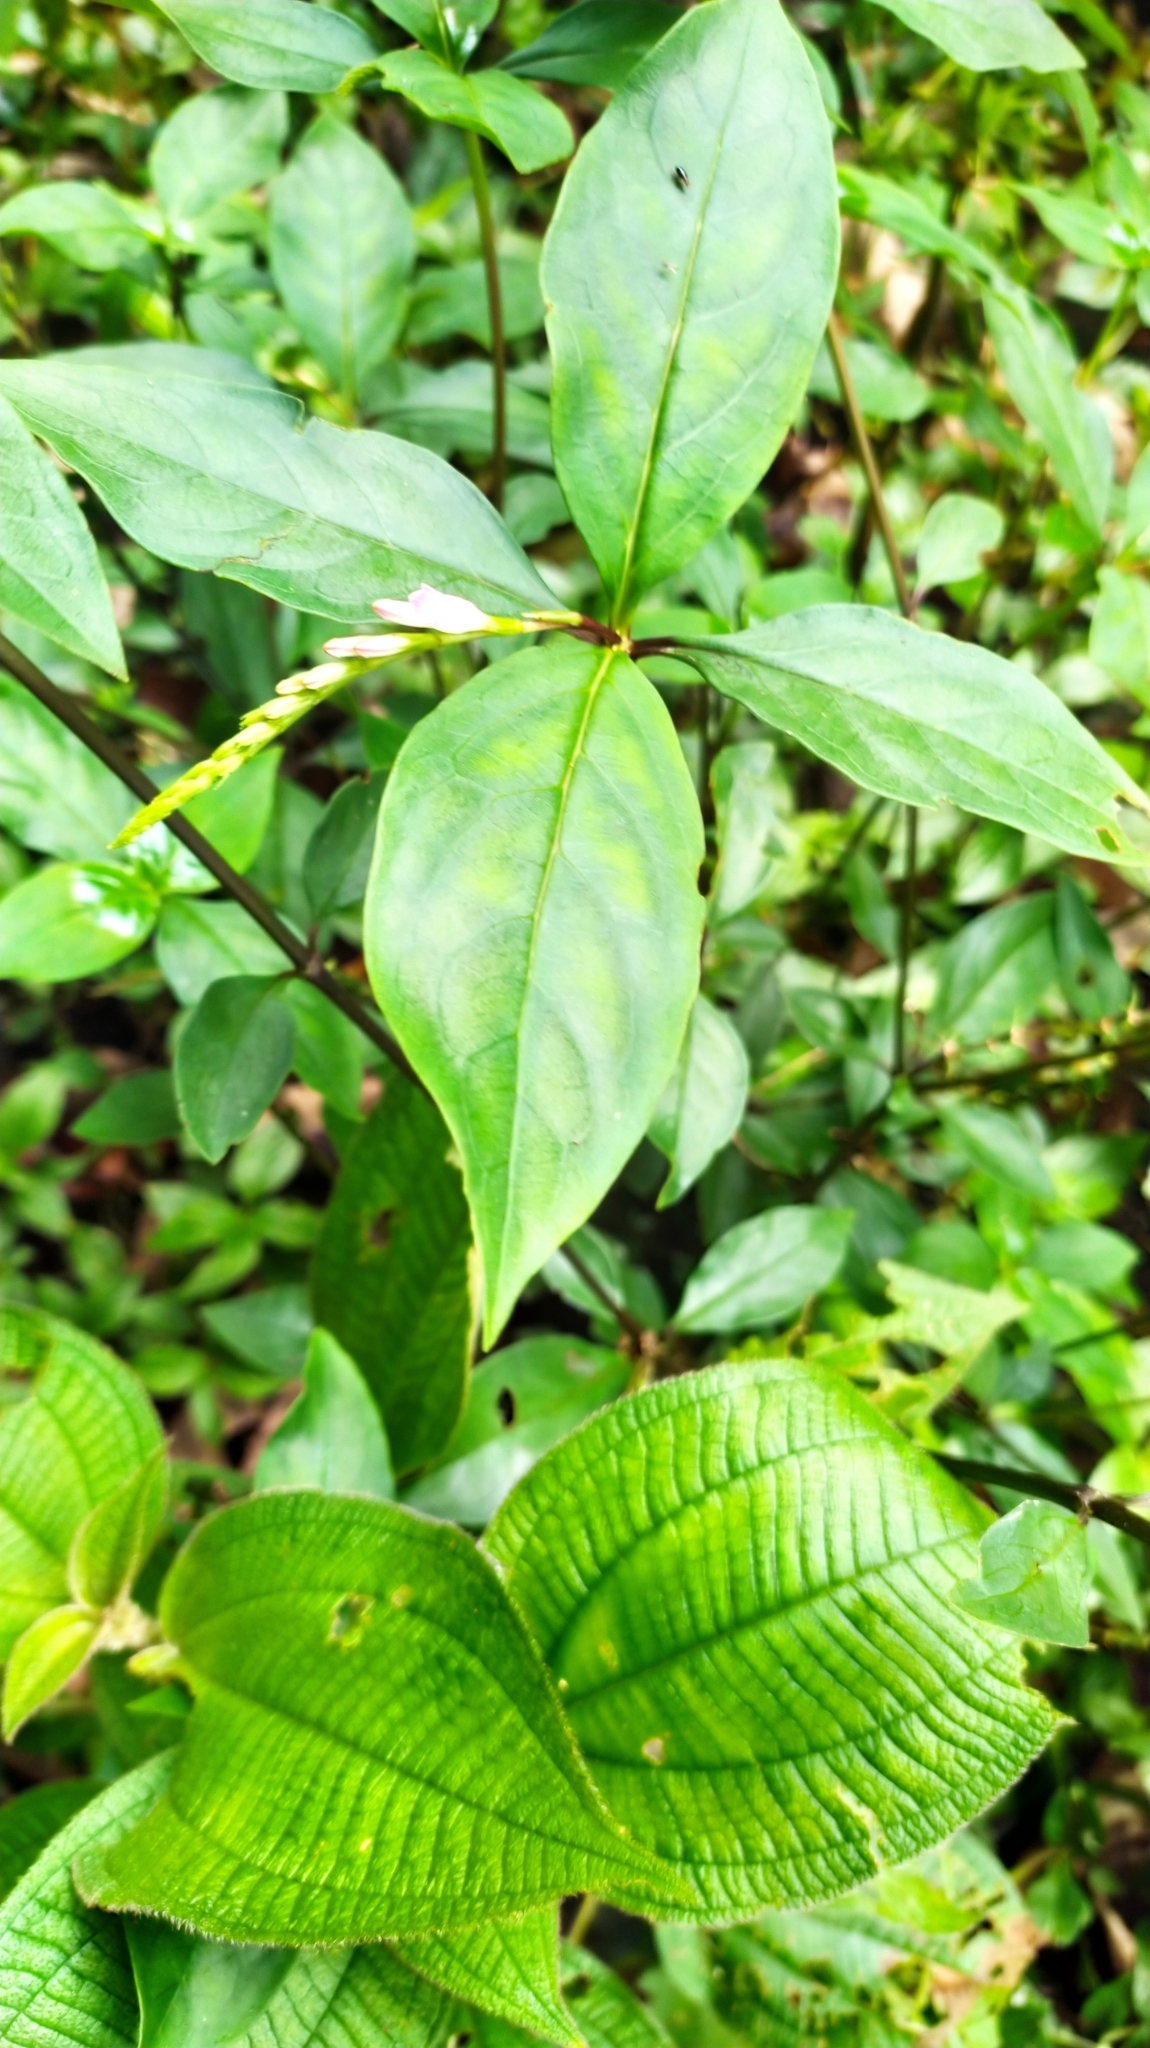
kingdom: Plantae
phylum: Tracheophyta
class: Magnoliopsida
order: Gentianales
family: Loganiaceae
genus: Spigelia
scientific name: Spigelia hamellioides
